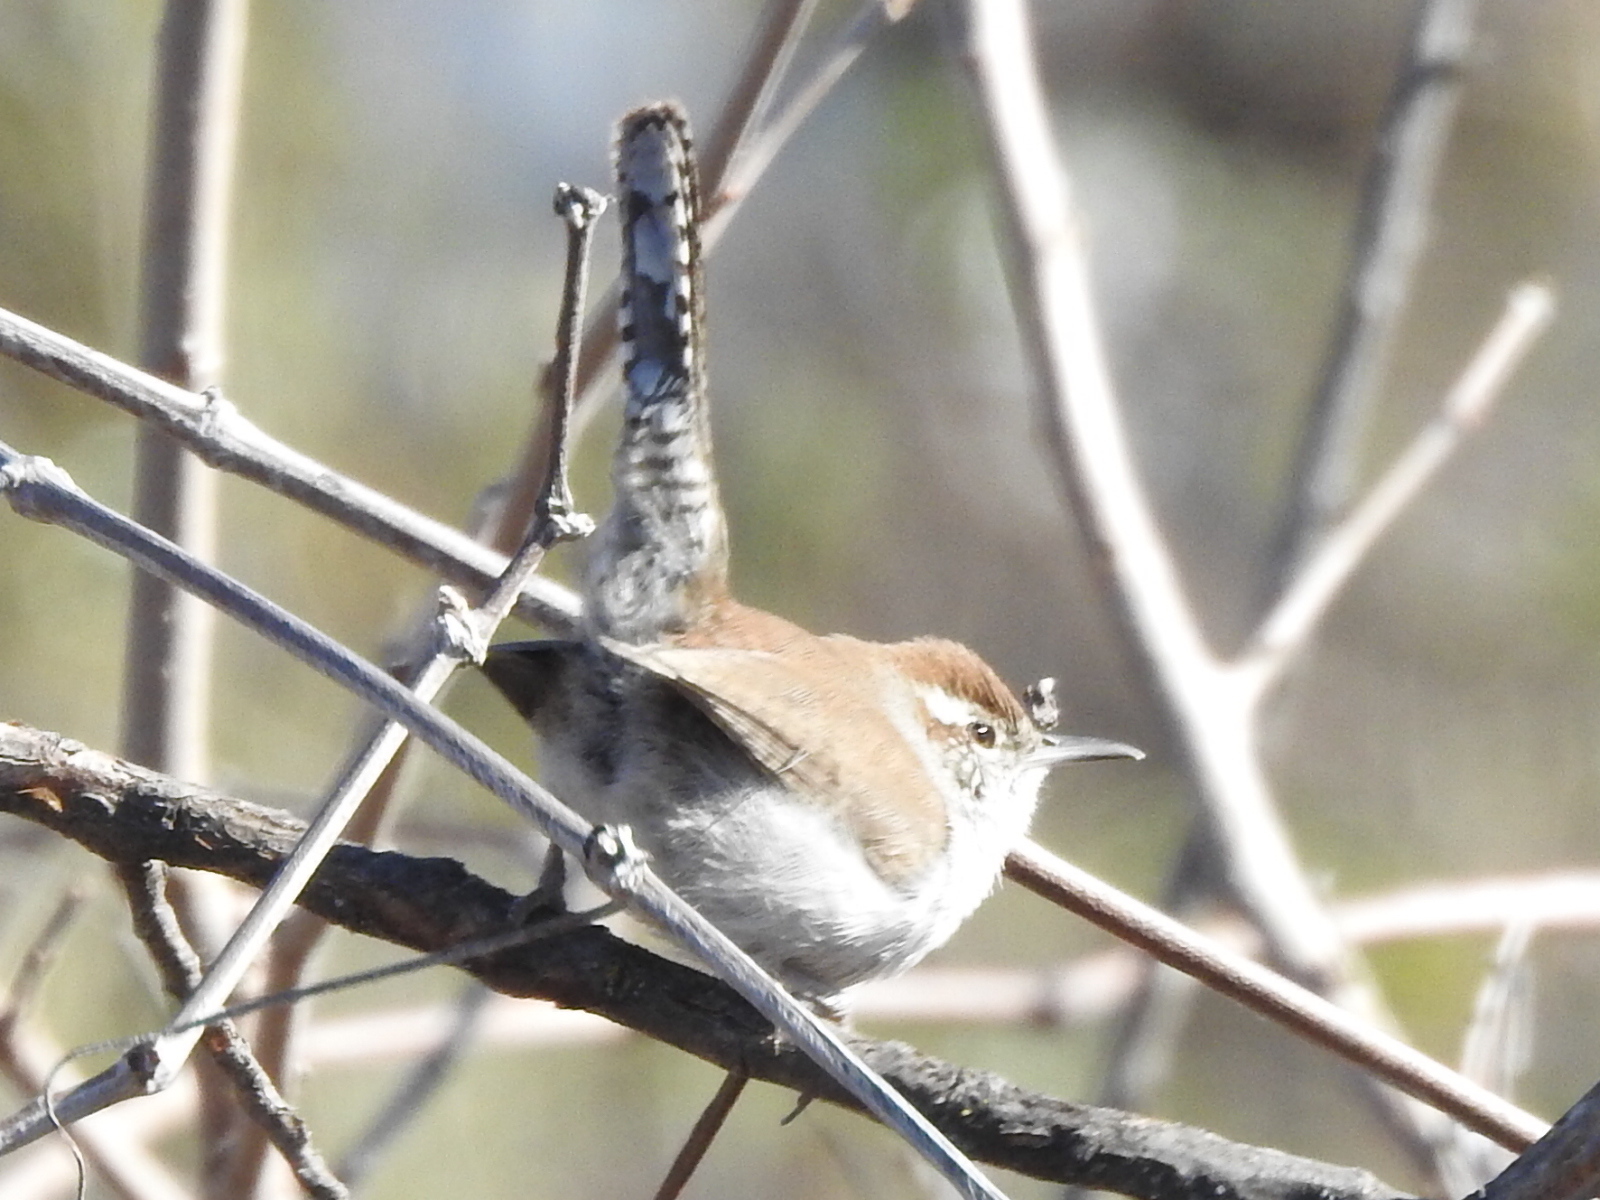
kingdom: Animalia
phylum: Chordata
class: Aves
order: Passeriformes
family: Troglodytidae
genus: Thryomanes
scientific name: Thryomanes bewickii
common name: Bewick's wren
